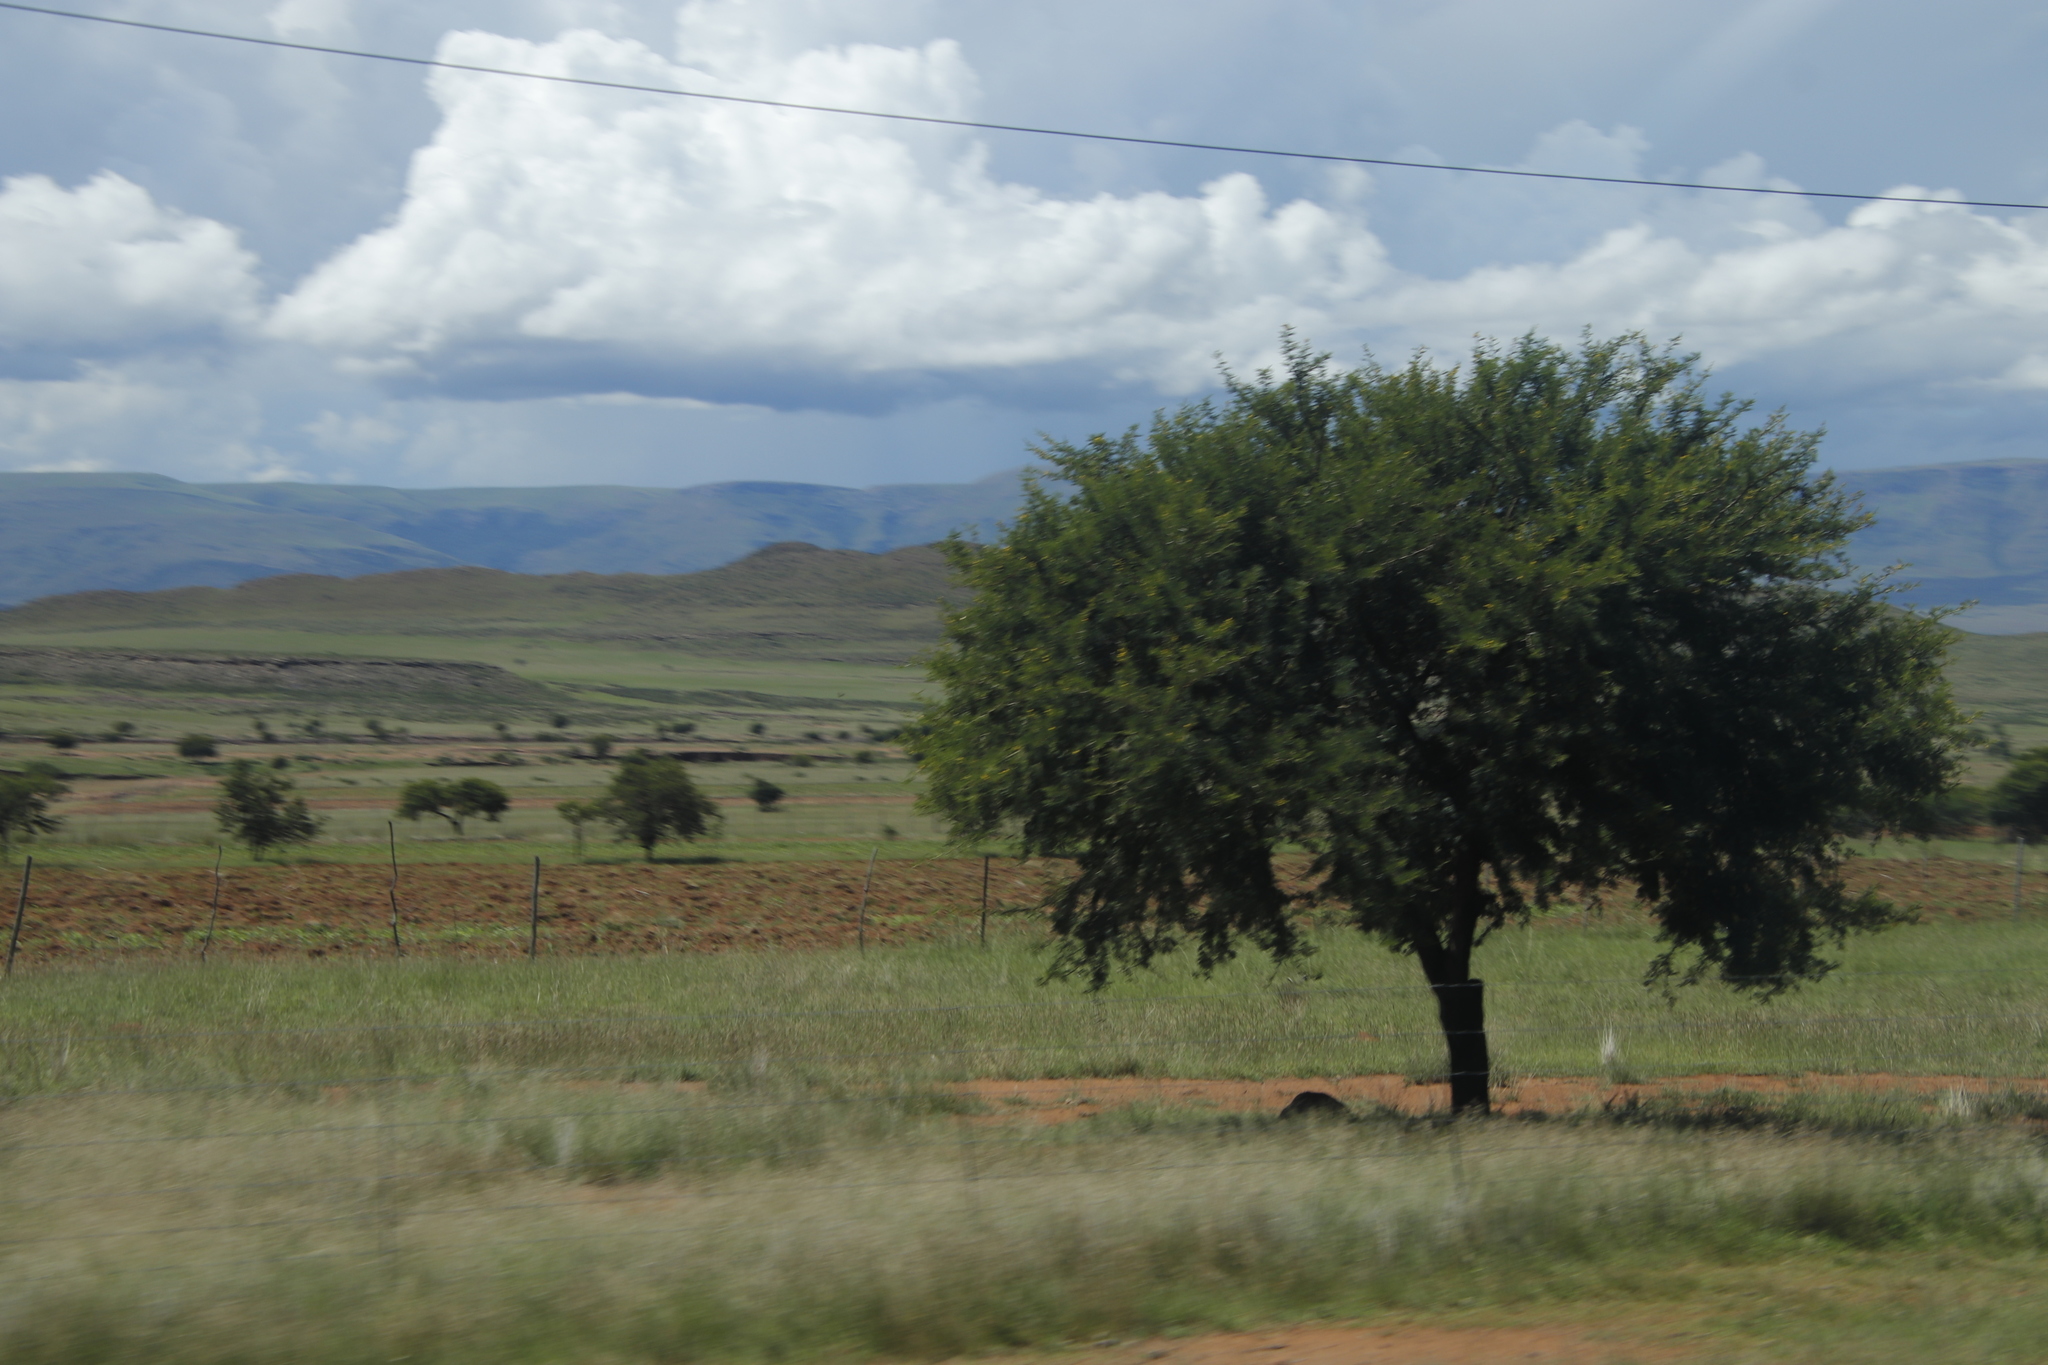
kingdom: Plantae
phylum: Tracheophyta
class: Magnoliopsida
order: Fabales
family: Fabaceae
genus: Vachellia
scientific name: Vachellia karroo
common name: Sweet thorn
